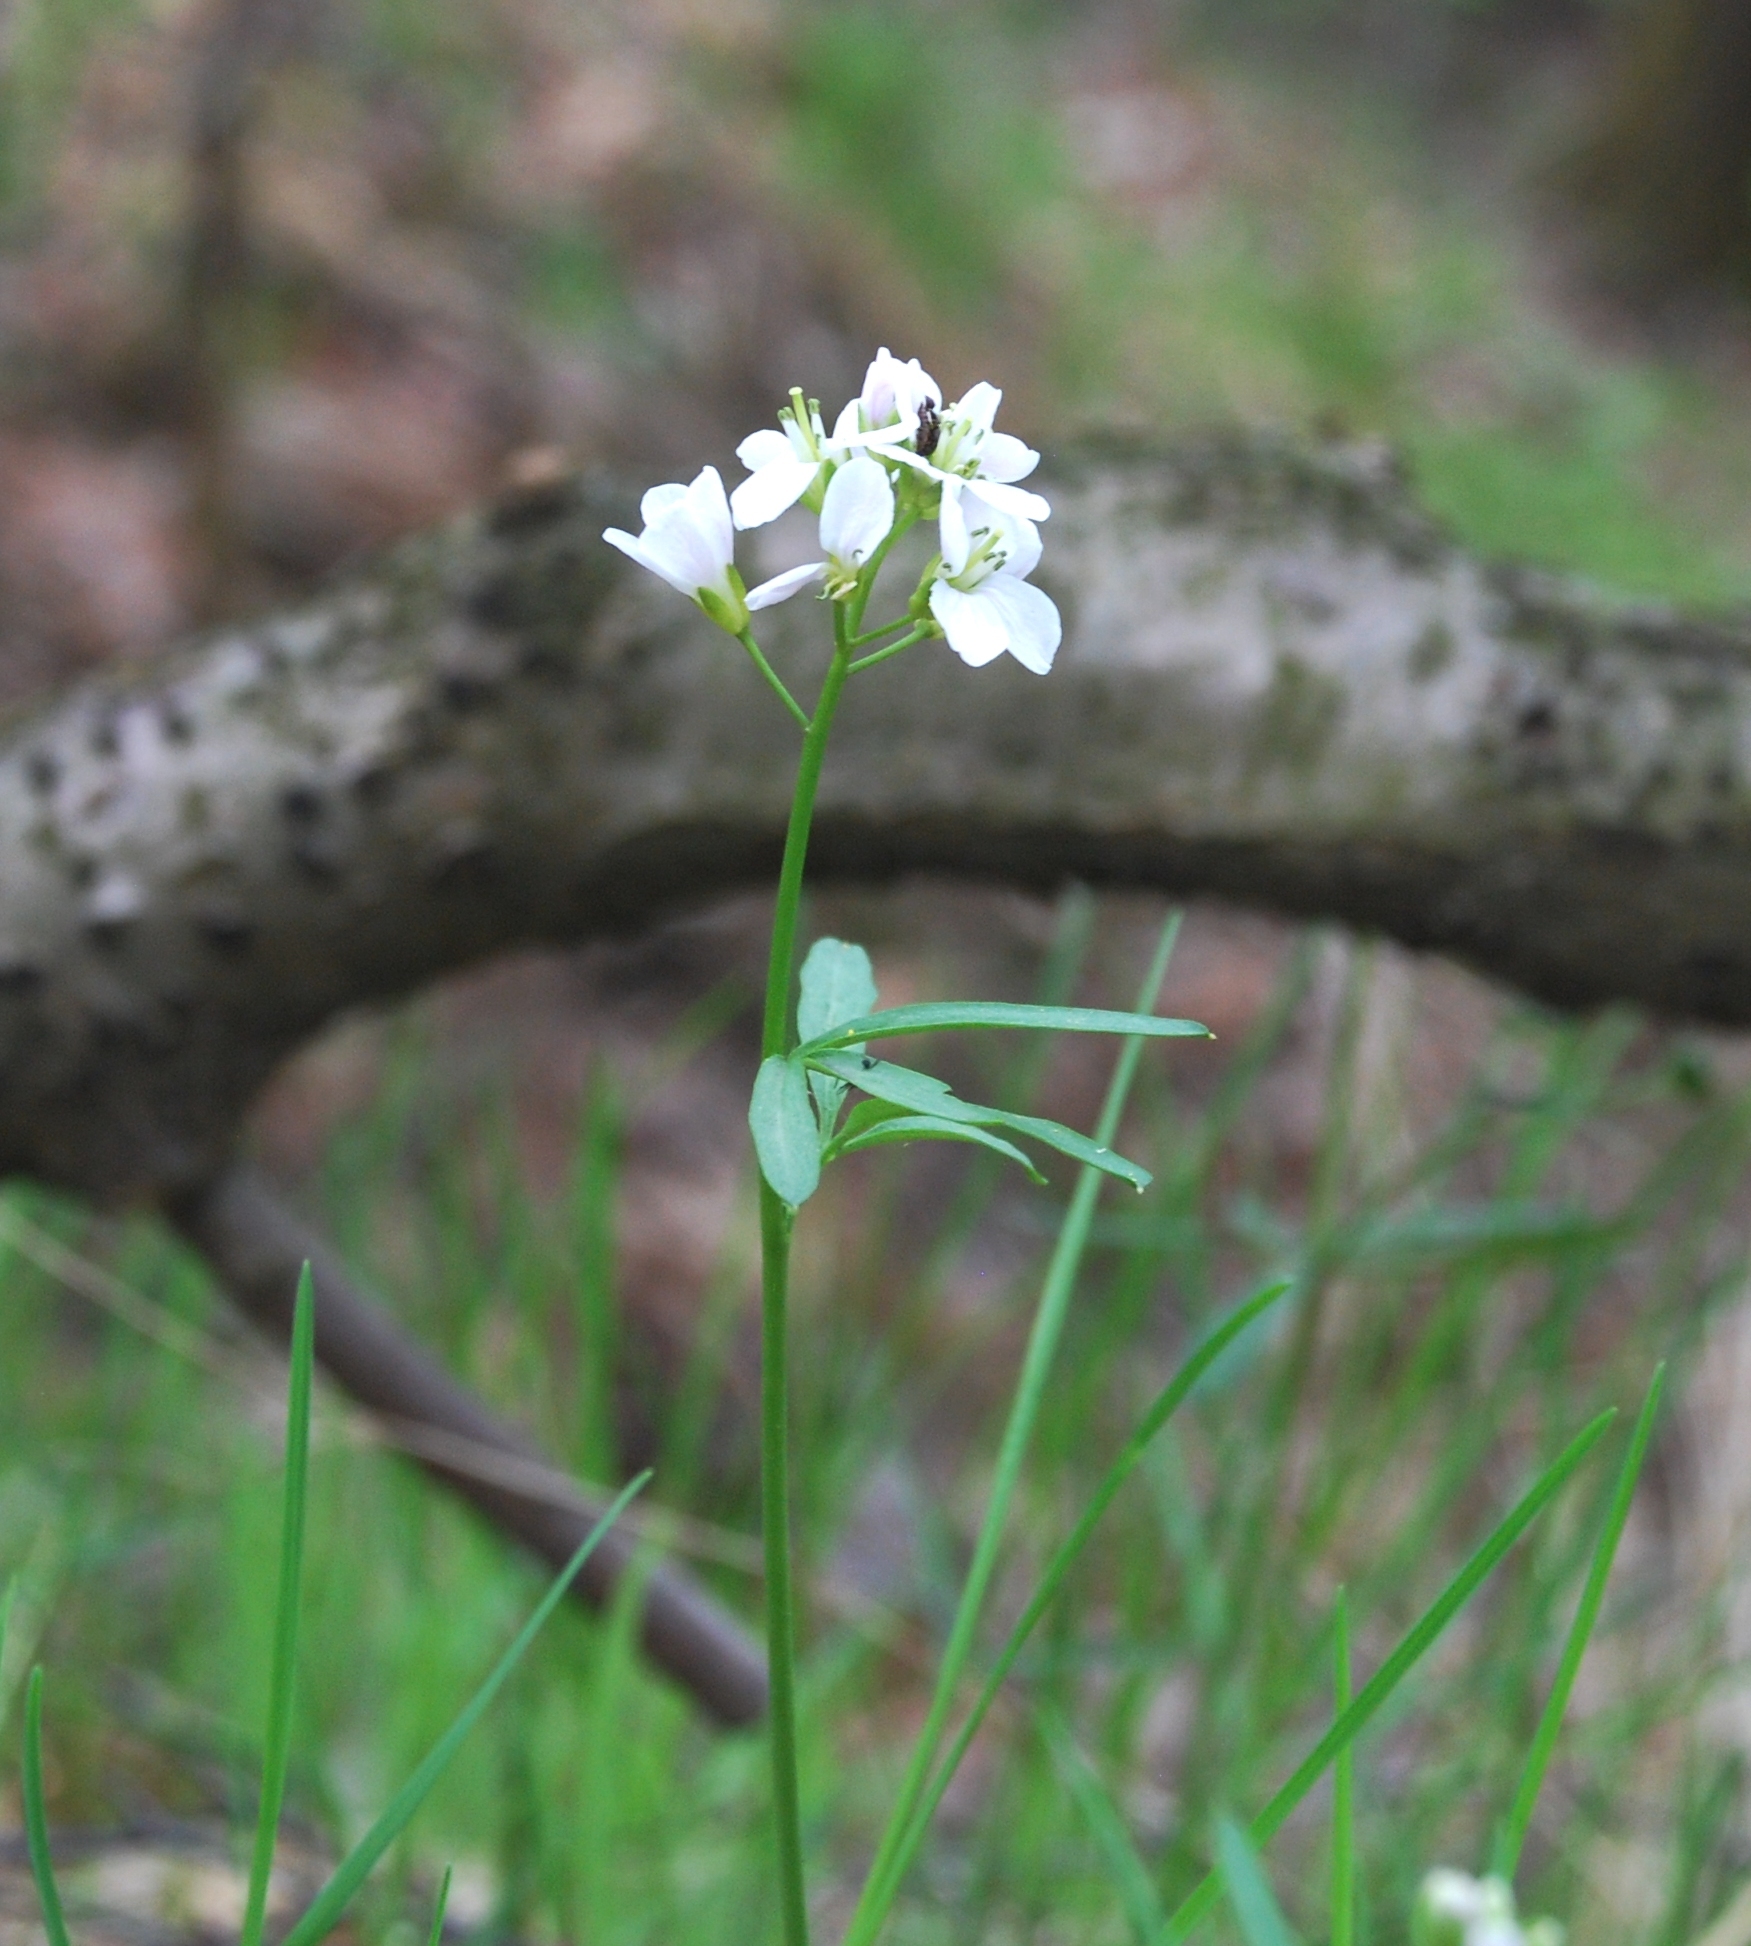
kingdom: Plantae
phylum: Tracheophyta
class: Magnoliopsida
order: Brassicales
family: Brassicaceae
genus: Cardamine
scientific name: Cardamine trifida
